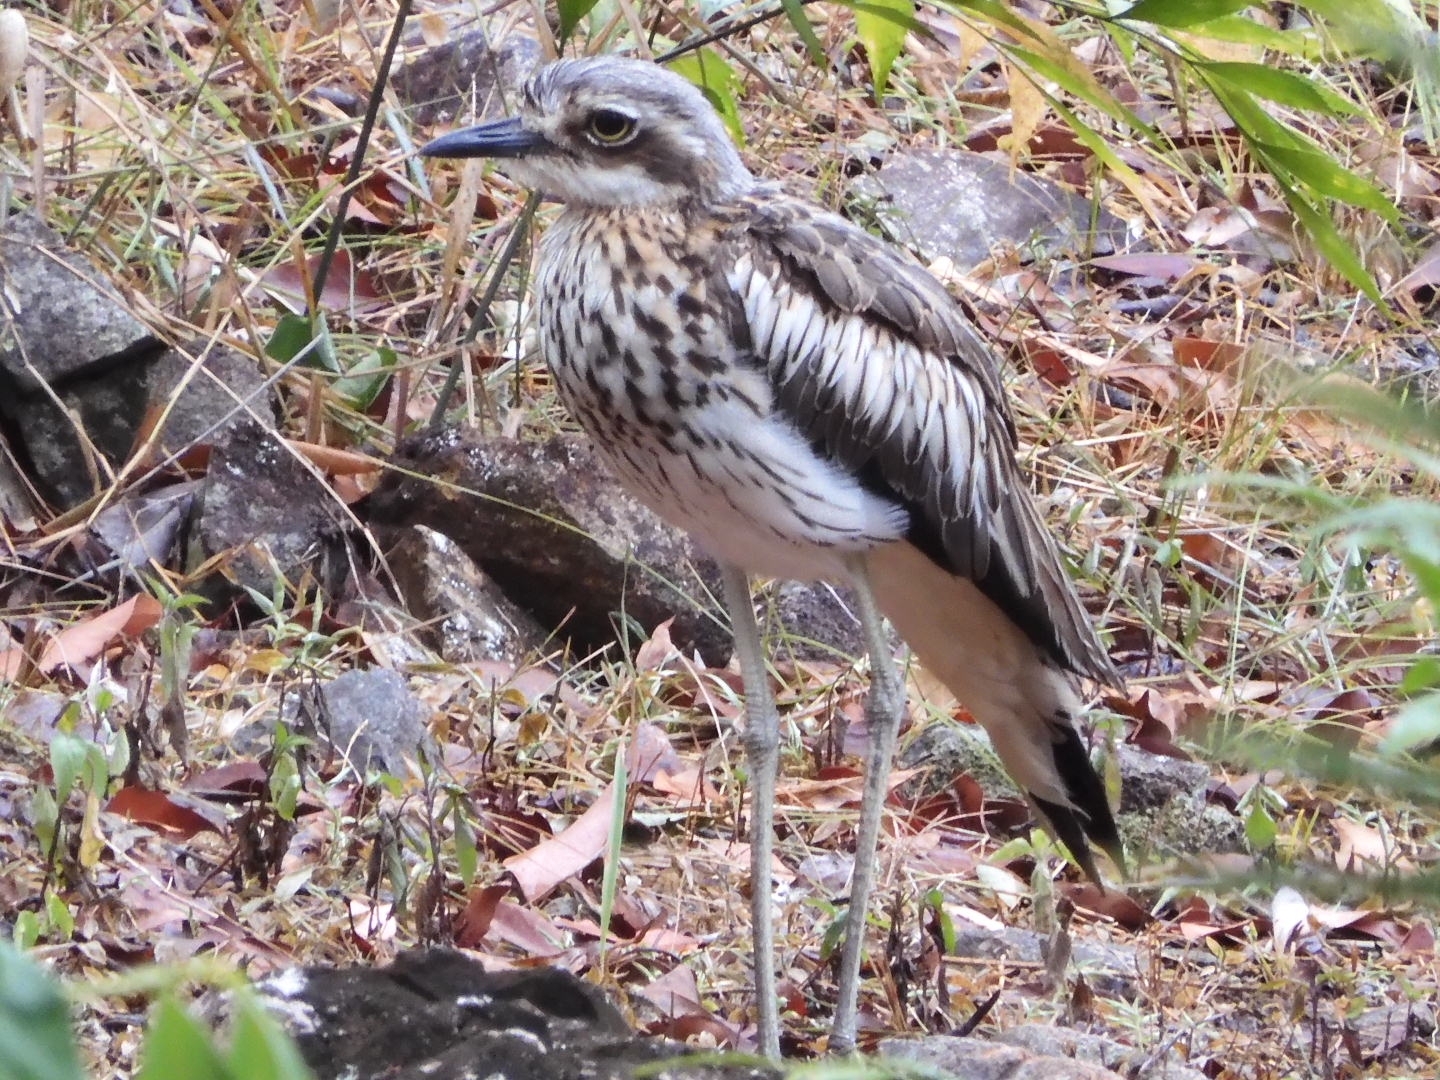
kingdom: Animalia
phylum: Chordata
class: Aves
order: Charadriiformes
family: Burhinidae
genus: Burhinus
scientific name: Burhinus grallarius
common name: Bush stone-curlew
